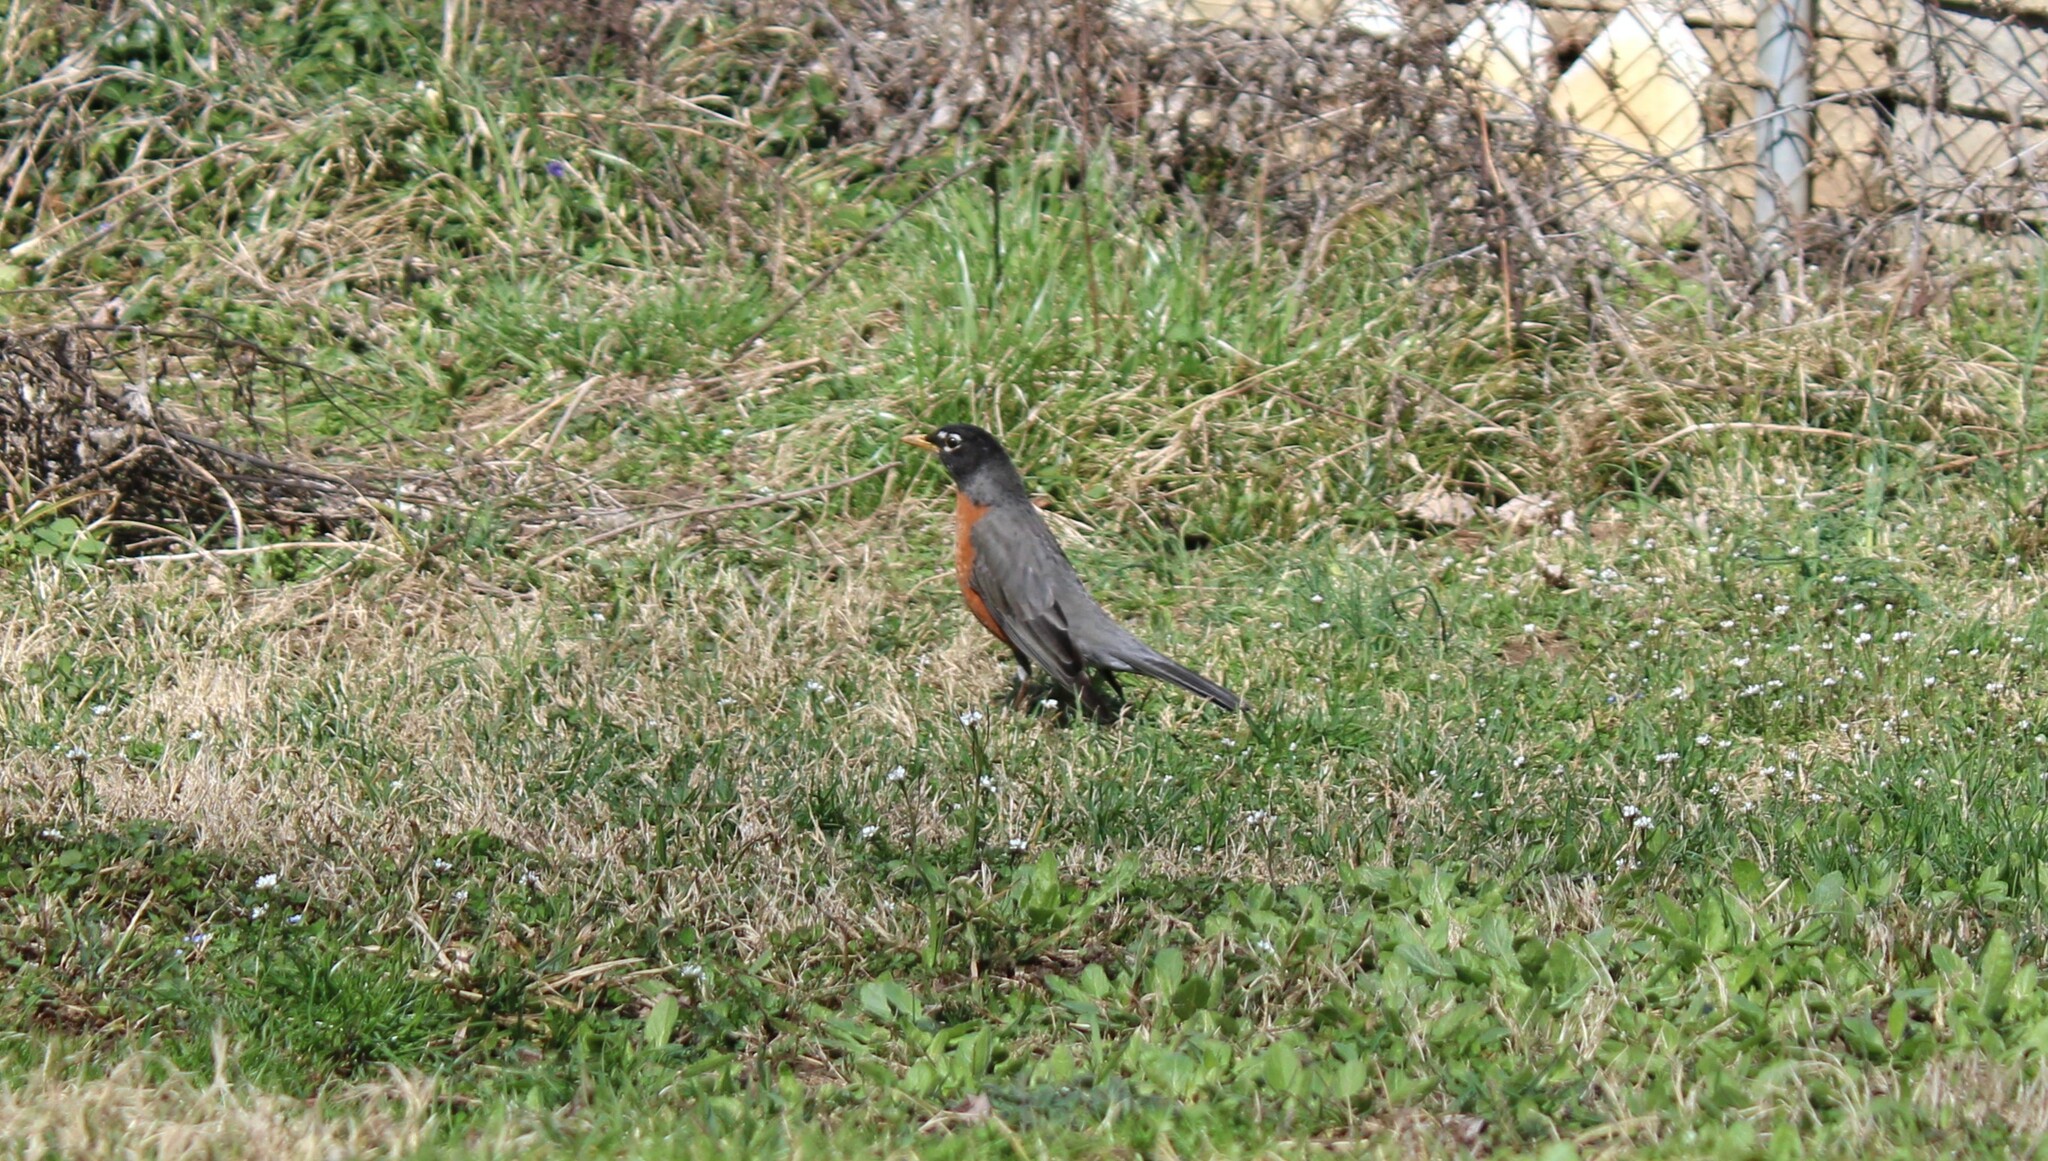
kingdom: Animalia
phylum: Chordata
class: Aves
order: Passeriformes
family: Turdidae
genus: Turdus
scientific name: Turdus migratorius
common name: American robin
